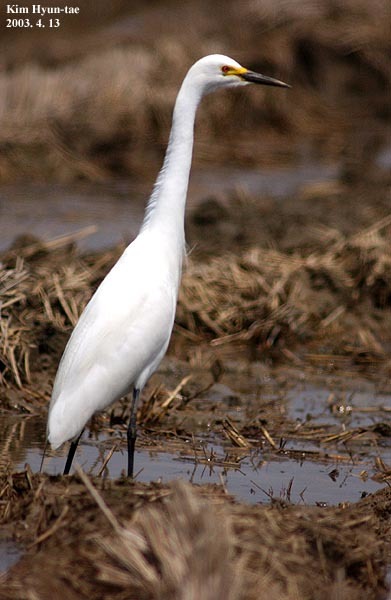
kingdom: Animalia
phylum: Chordata
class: Aves
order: Pelecaniformes
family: Ardeidae
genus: Egretta
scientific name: Egretta intermedia
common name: Intermediate egret
